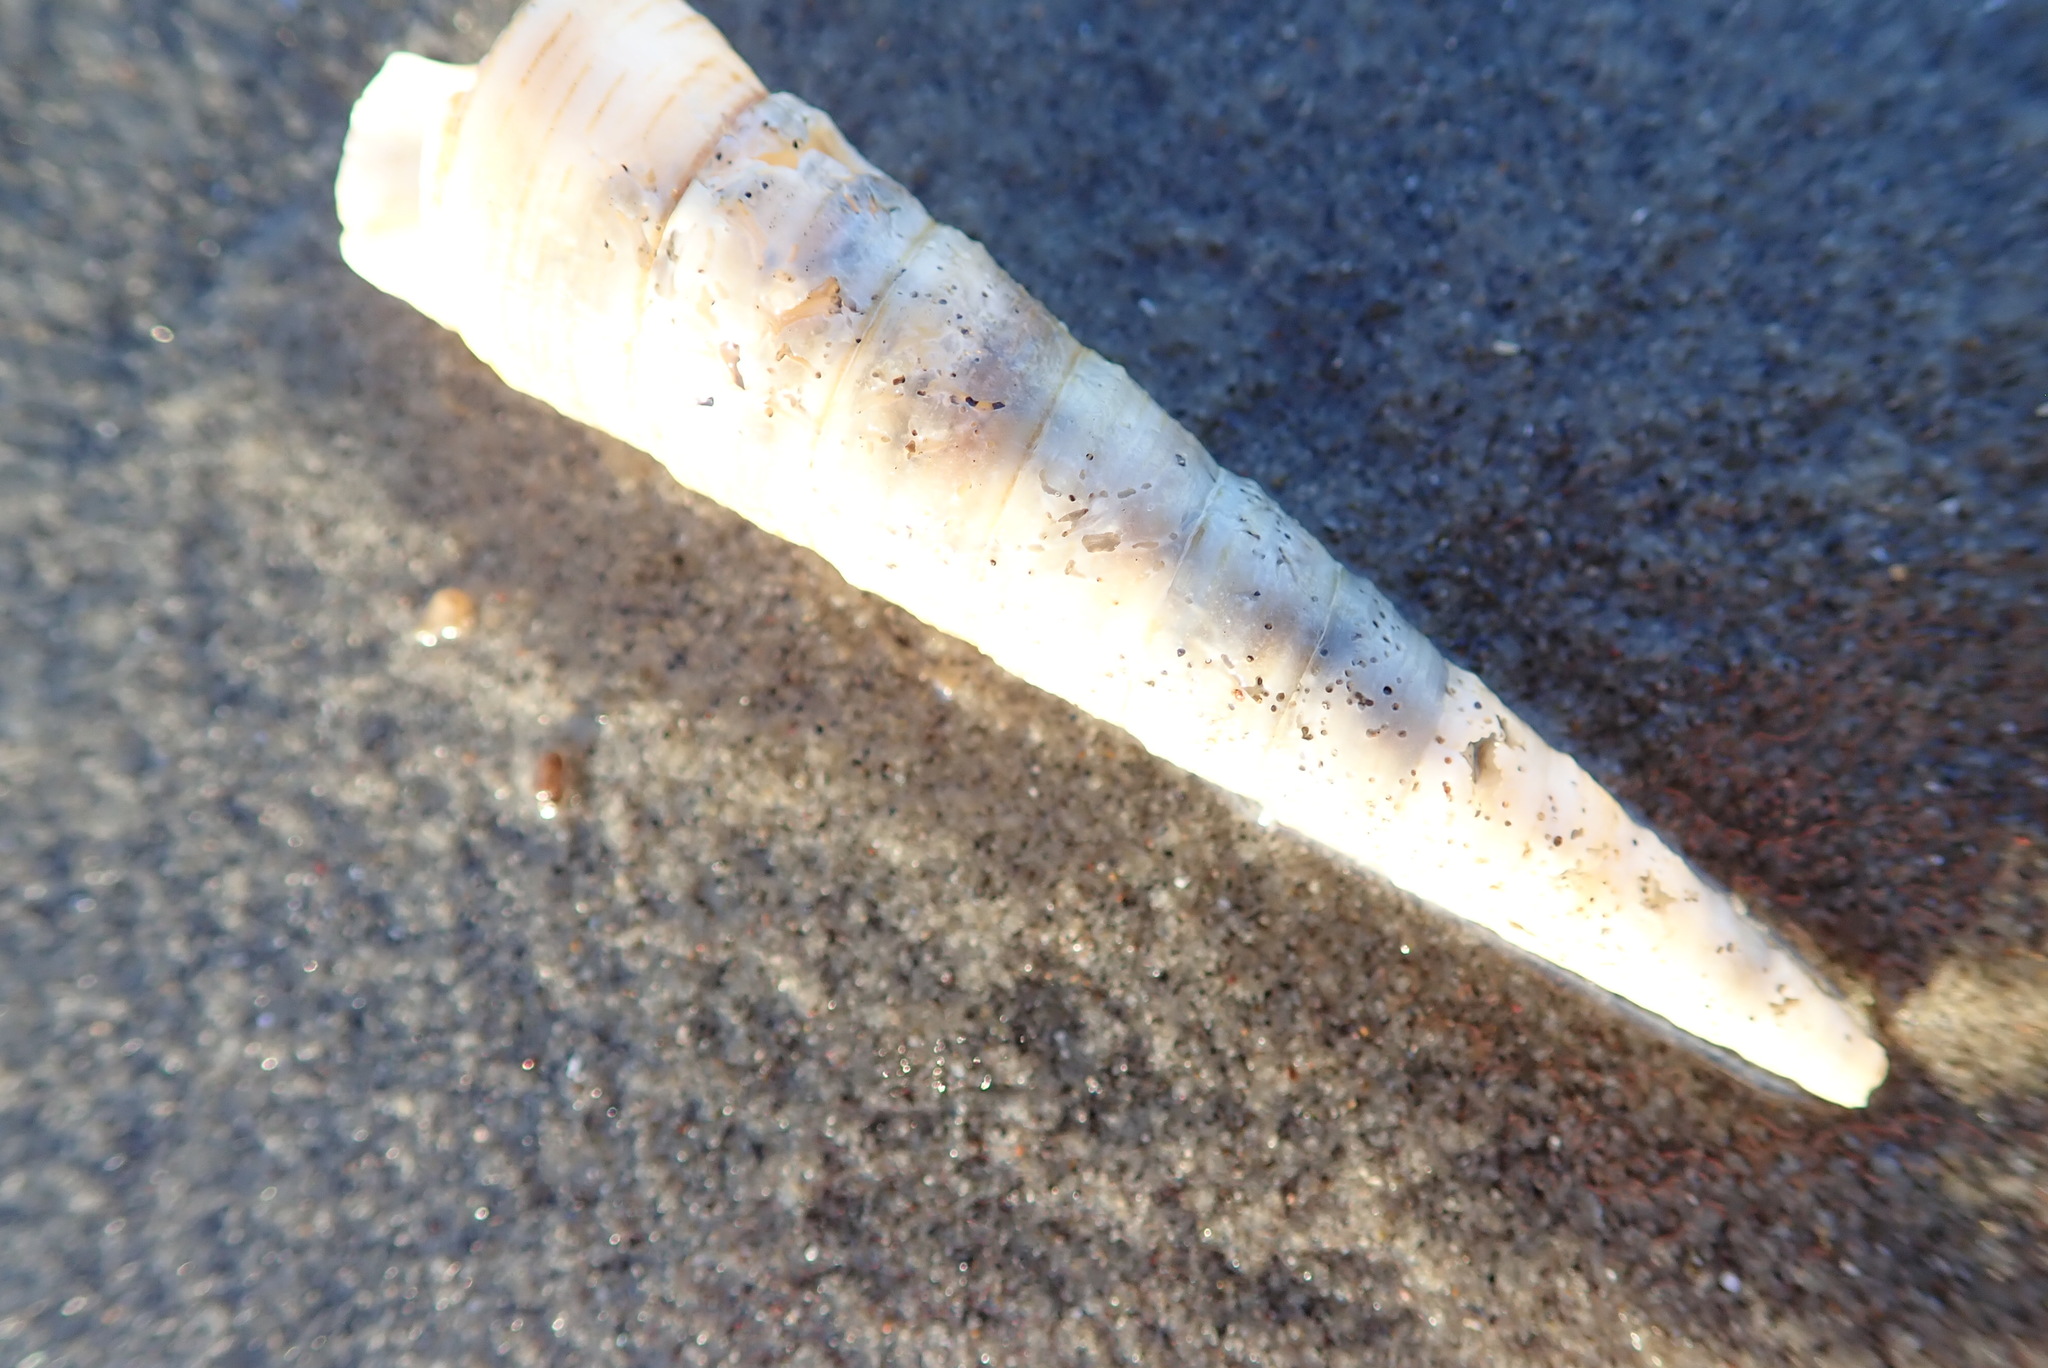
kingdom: Animalia
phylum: Mollusca
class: Gastropoda
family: Turritellidae
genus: Zeacolpus
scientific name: Zeacolpus vittatus
